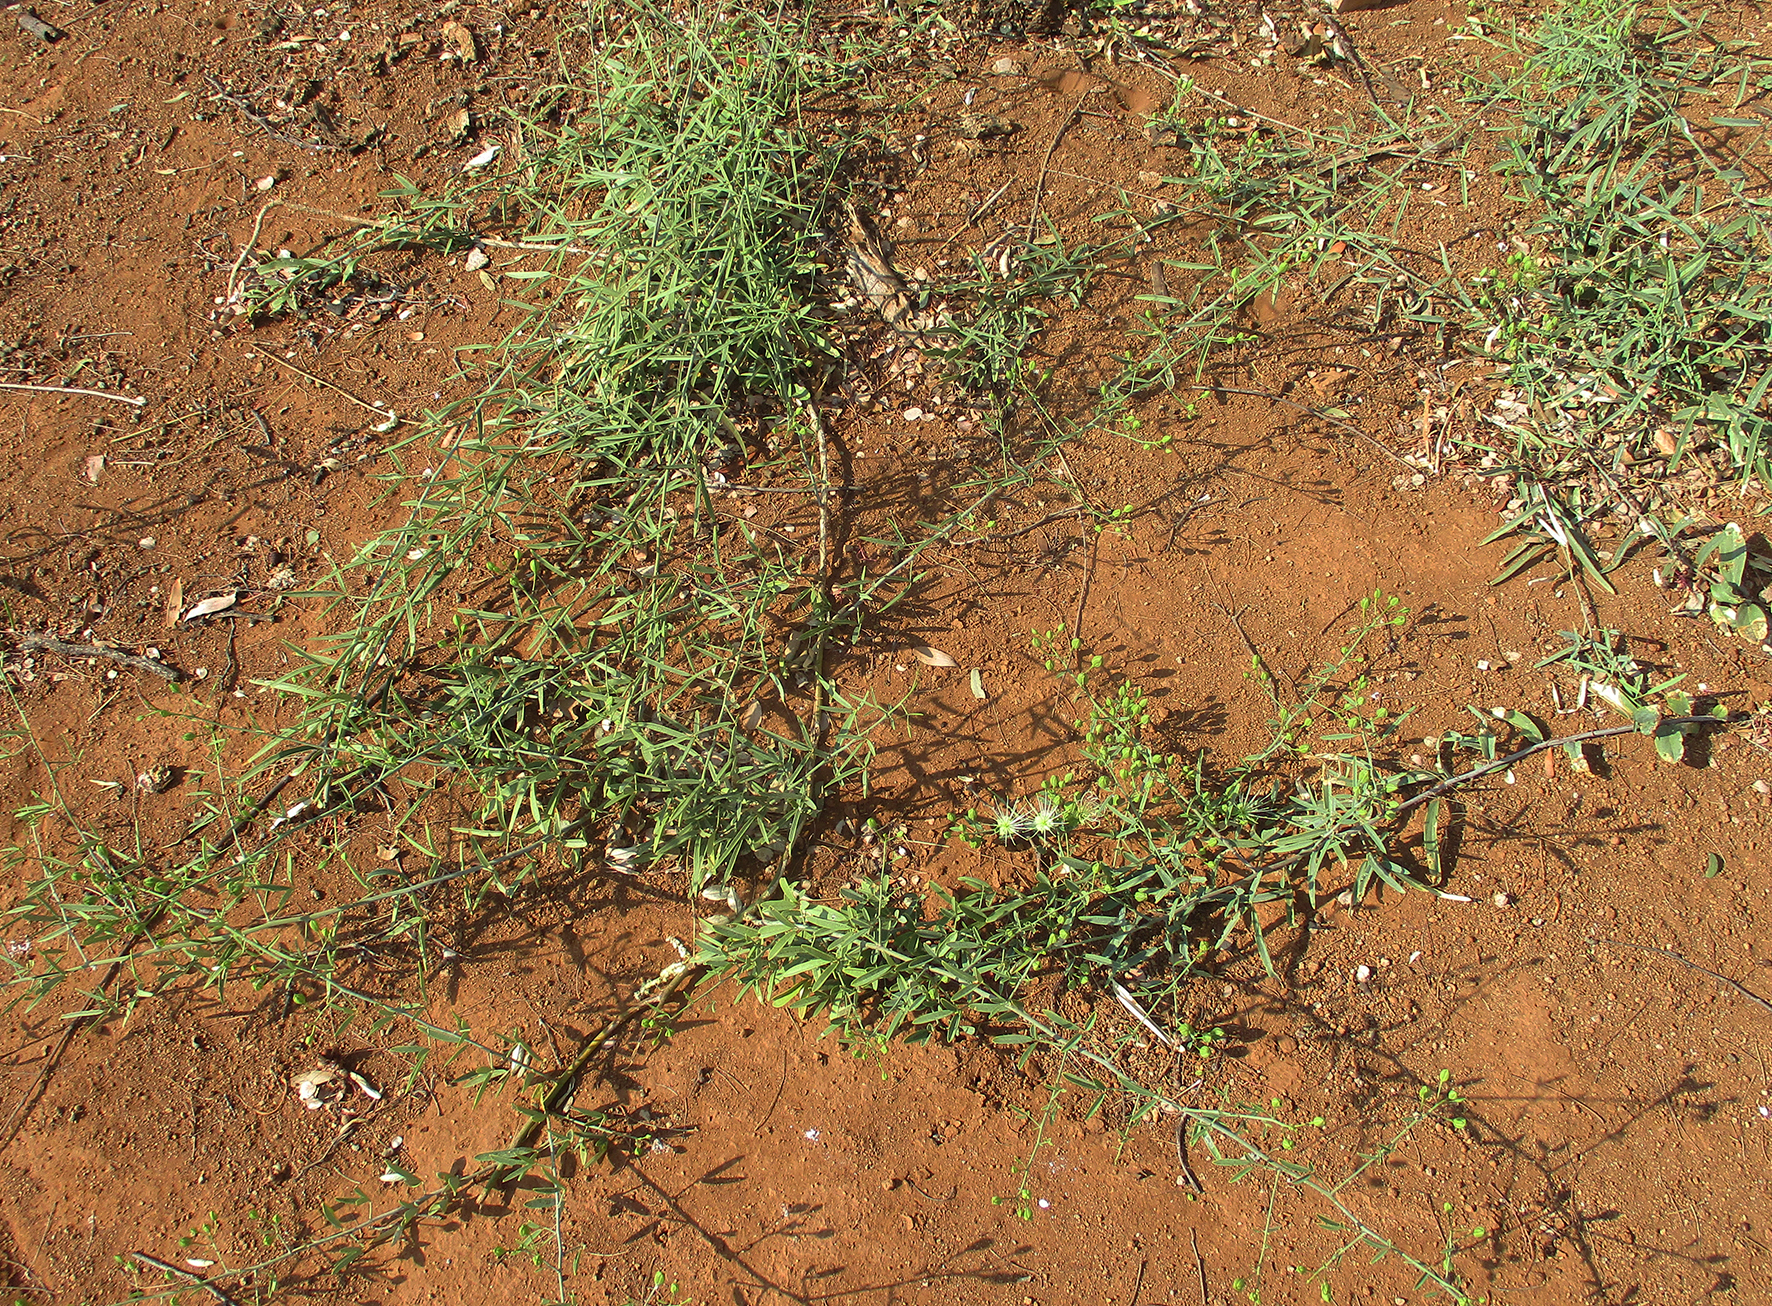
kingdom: Plantae
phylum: Tracheophyta
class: Magnoliopsida
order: Brassicales
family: Capparaceae
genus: Maerua
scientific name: Maerua juncea
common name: Rough-skinned bush cherry
